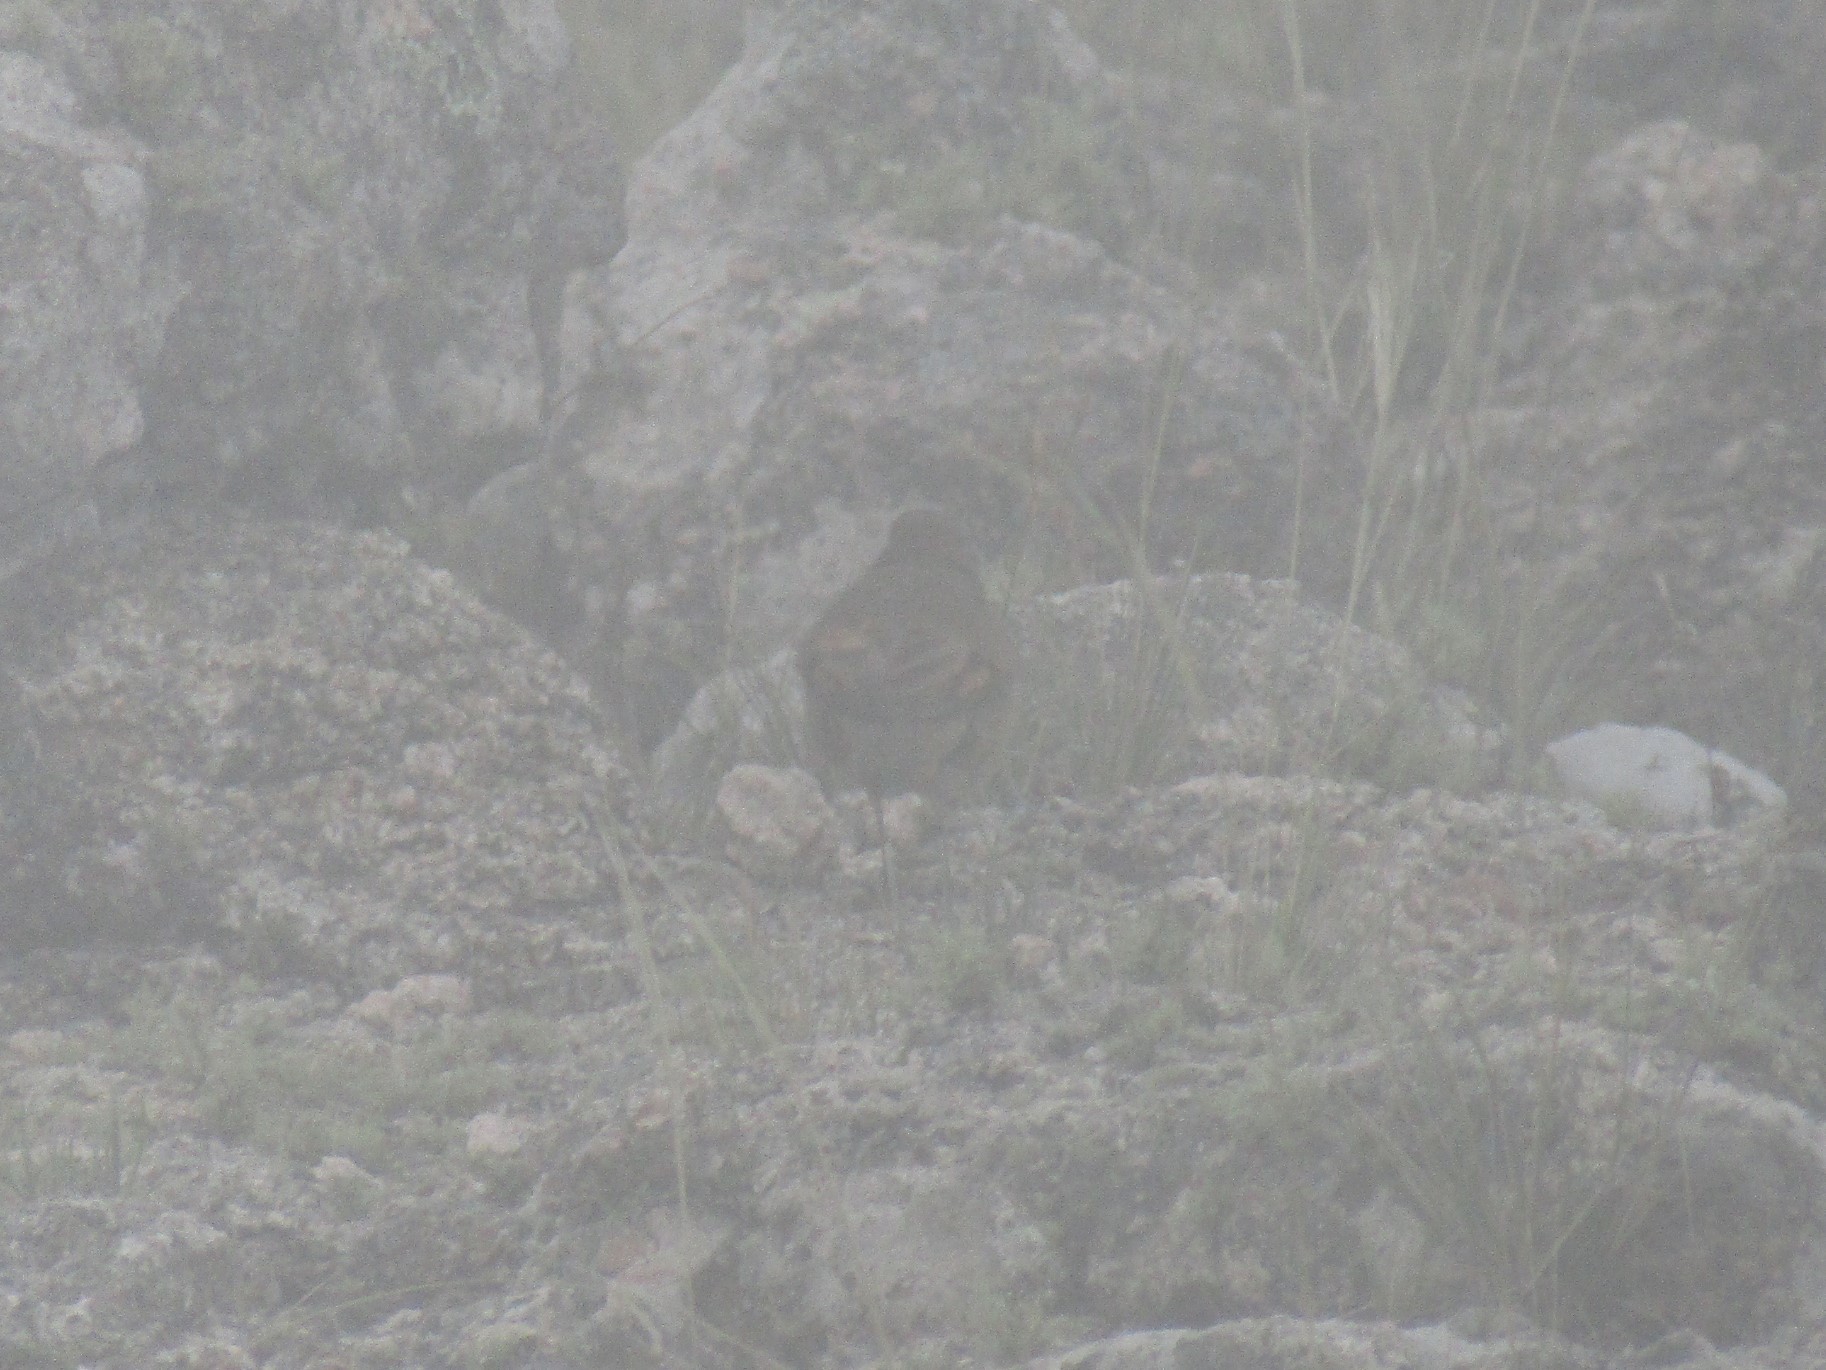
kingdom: Animalia
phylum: Chordata
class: Aves
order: Passeriformes
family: Furnariidae
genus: Cinclodes
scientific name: Cinclodes comechingonus
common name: Cordoba cinclodes
